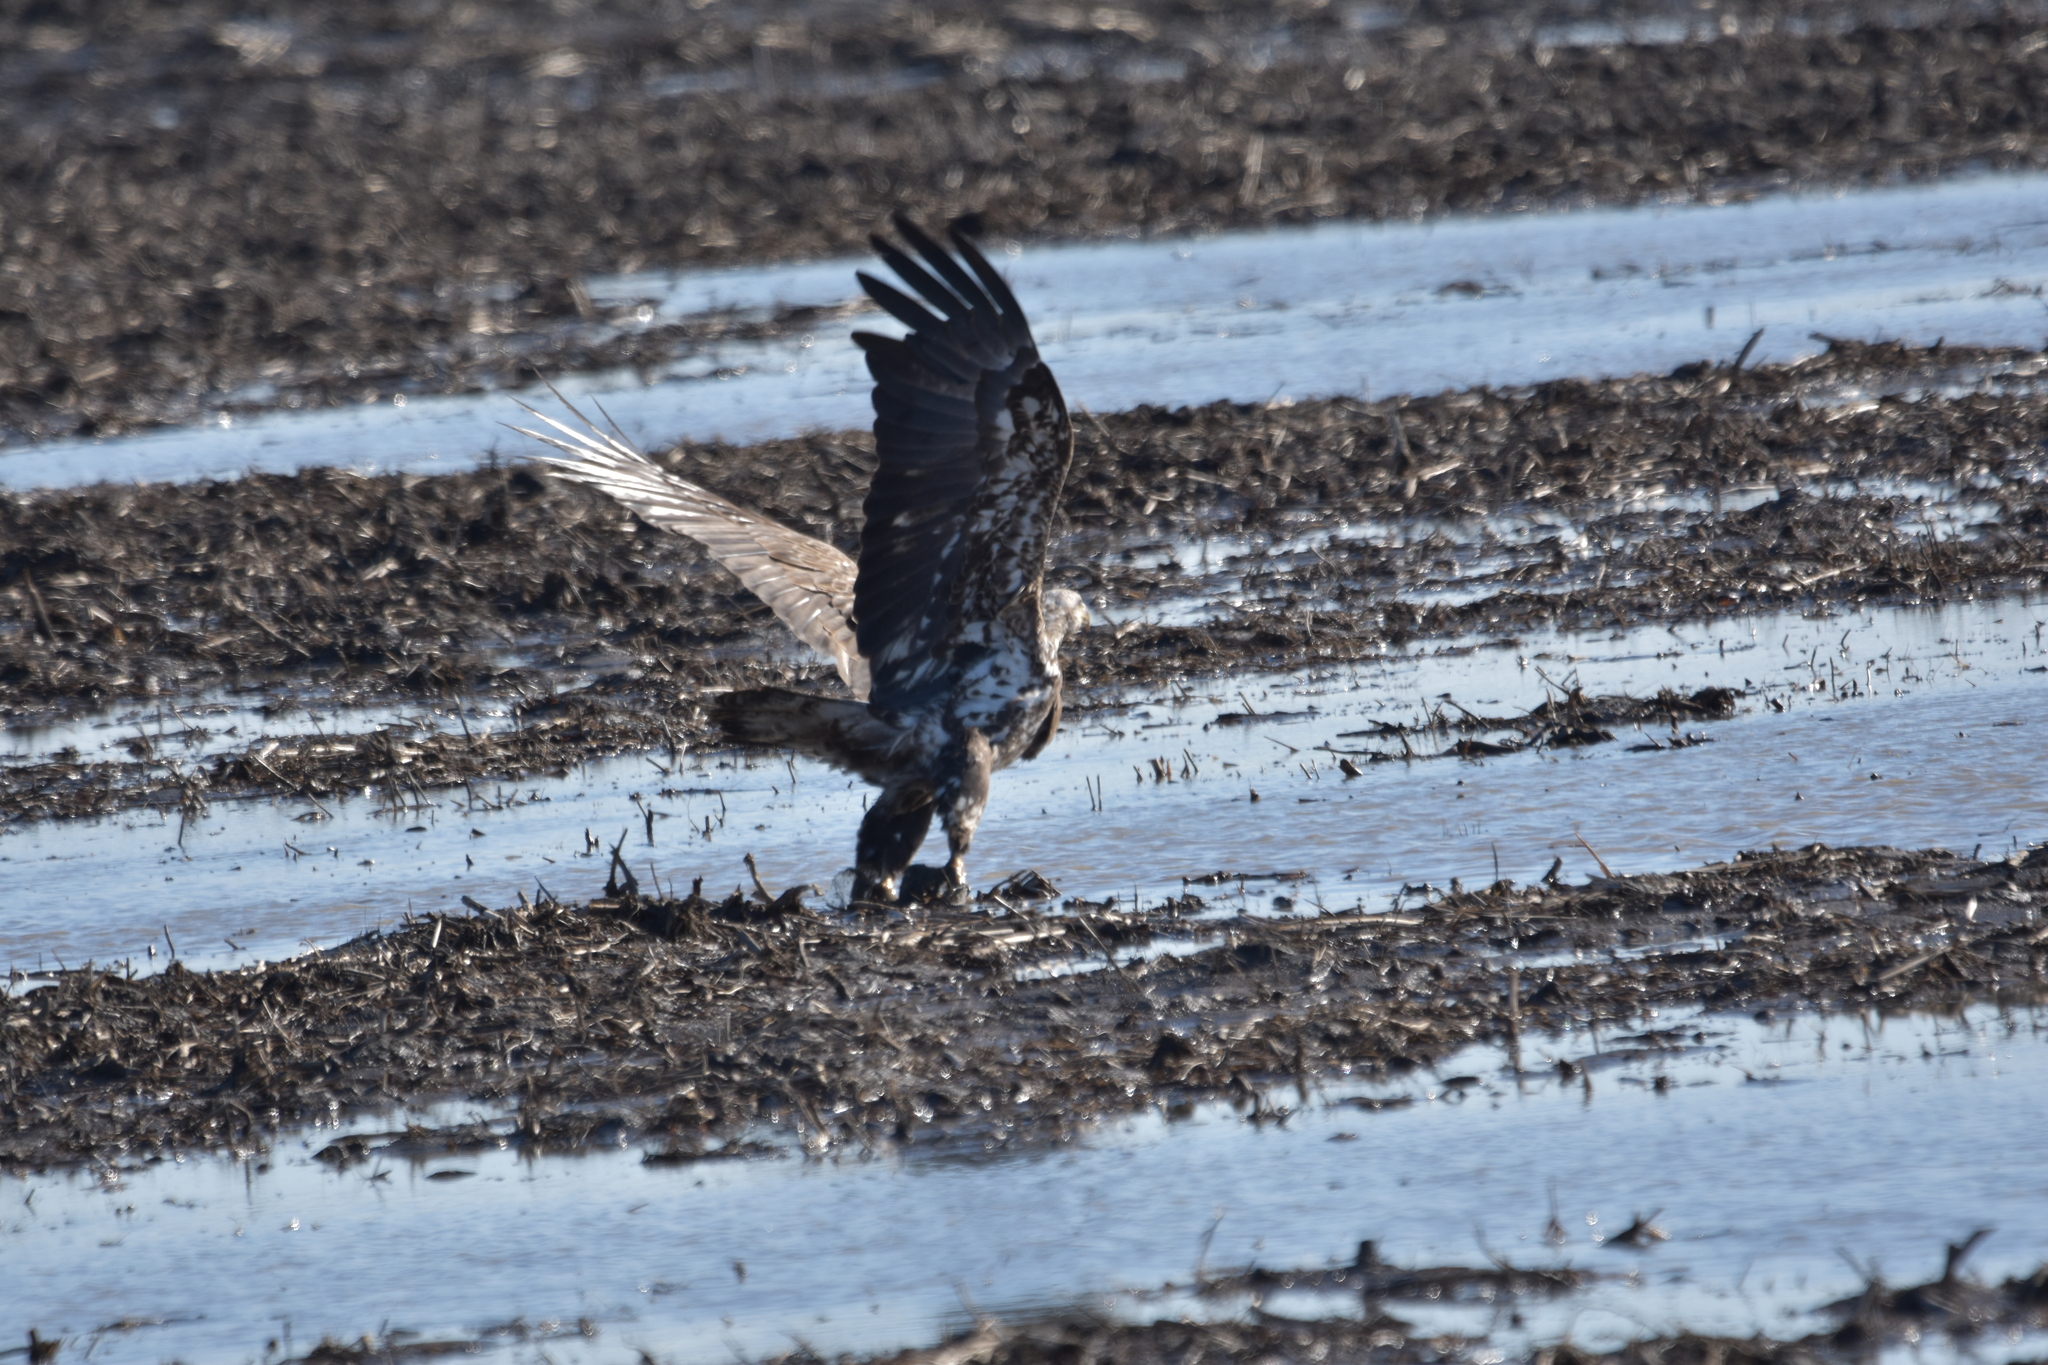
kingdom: Animalia
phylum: Chordata
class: Aves
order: Accipitriformes
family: Accipitridae
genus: Haliaeetus
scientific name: Haliaeetus leucocephalus
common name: Bald eagle
